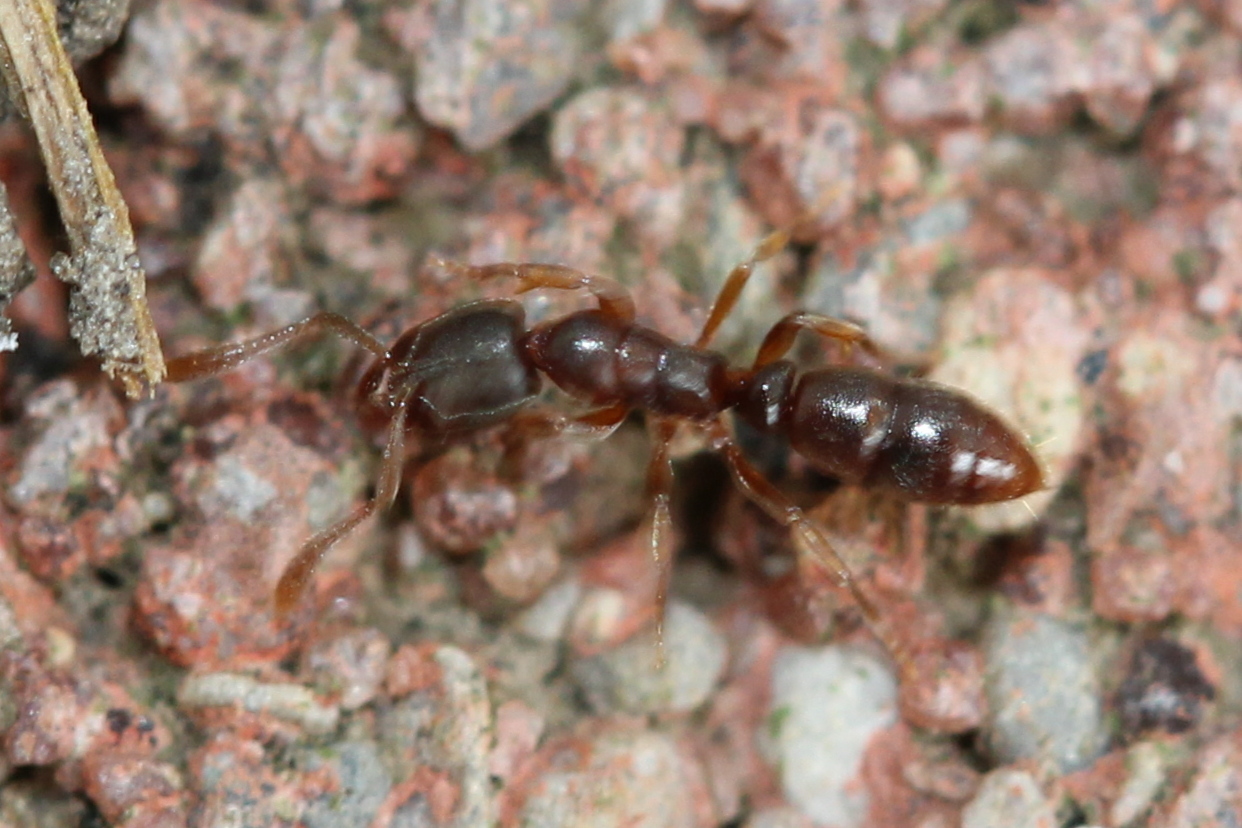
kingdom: Animalia
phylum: Arthropoda
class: Insecta
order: Hymenoptera
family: Formicidae
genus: Ponera
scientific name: Ponera pennsylvanica
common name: Pennsylvania ponera
